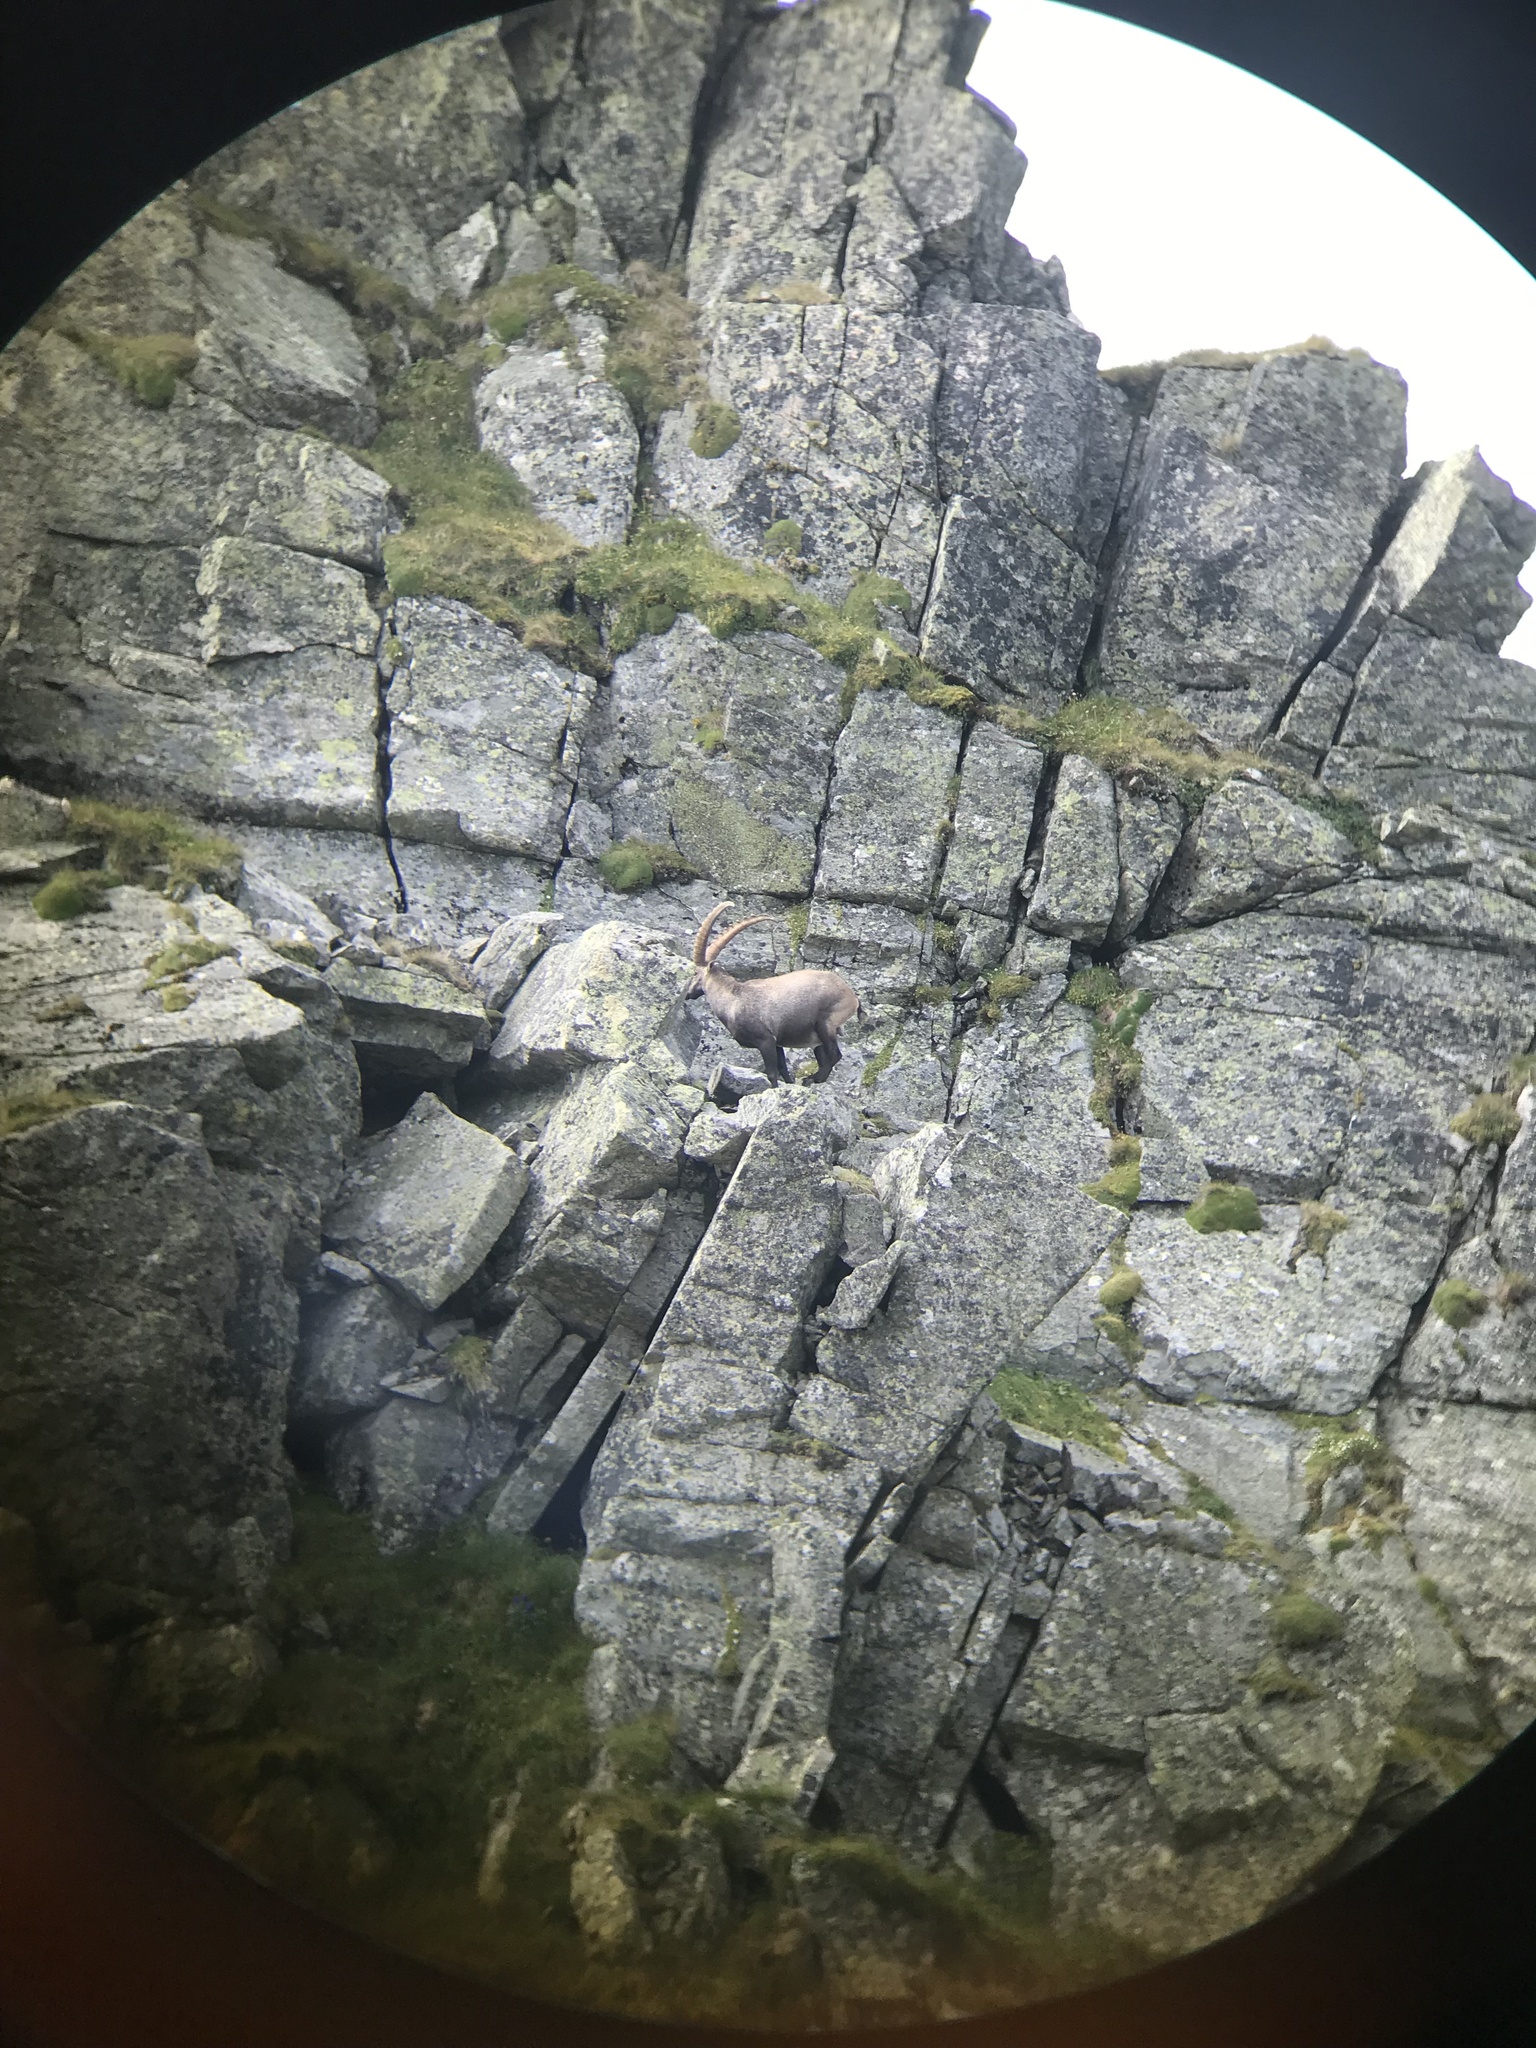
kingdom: Animalia
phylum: Chordata
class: Mammalia
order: Artiodactyla
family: Bovidae
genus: Capra
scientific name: Capra ibex
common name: Alpine ibex
